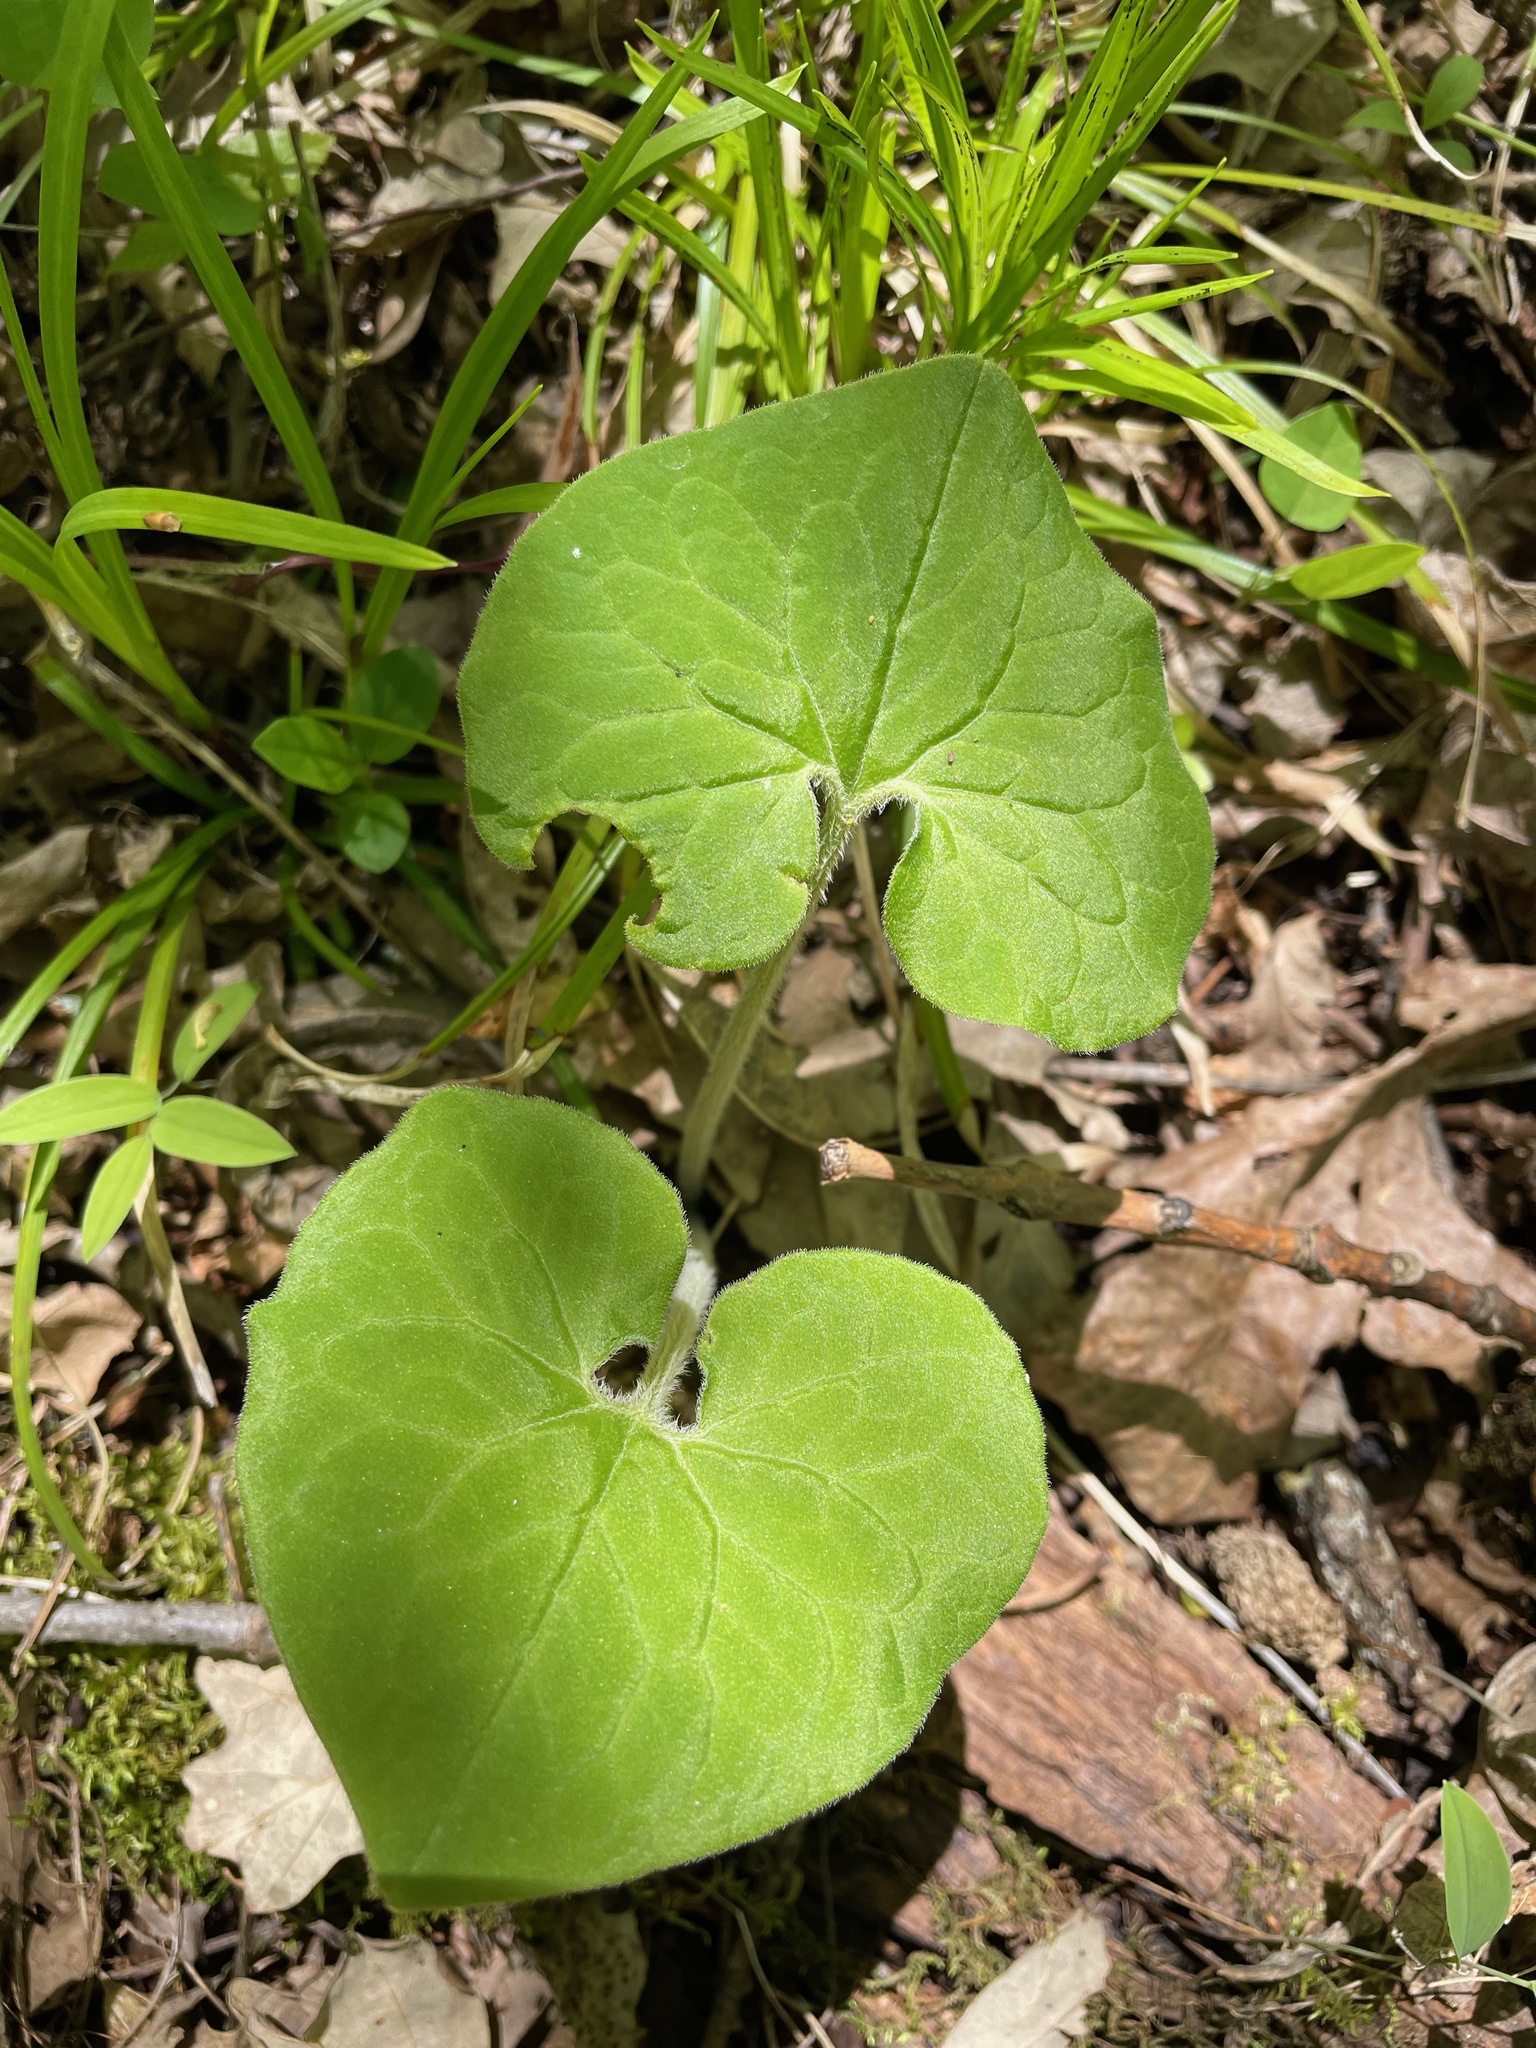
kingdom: Plantae
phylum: Tracheophyta
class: Magnoliopsida
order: Piperales
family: Aristolochiaceae
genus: Asarum
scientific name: Asarum canadense
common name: Wild ginger
